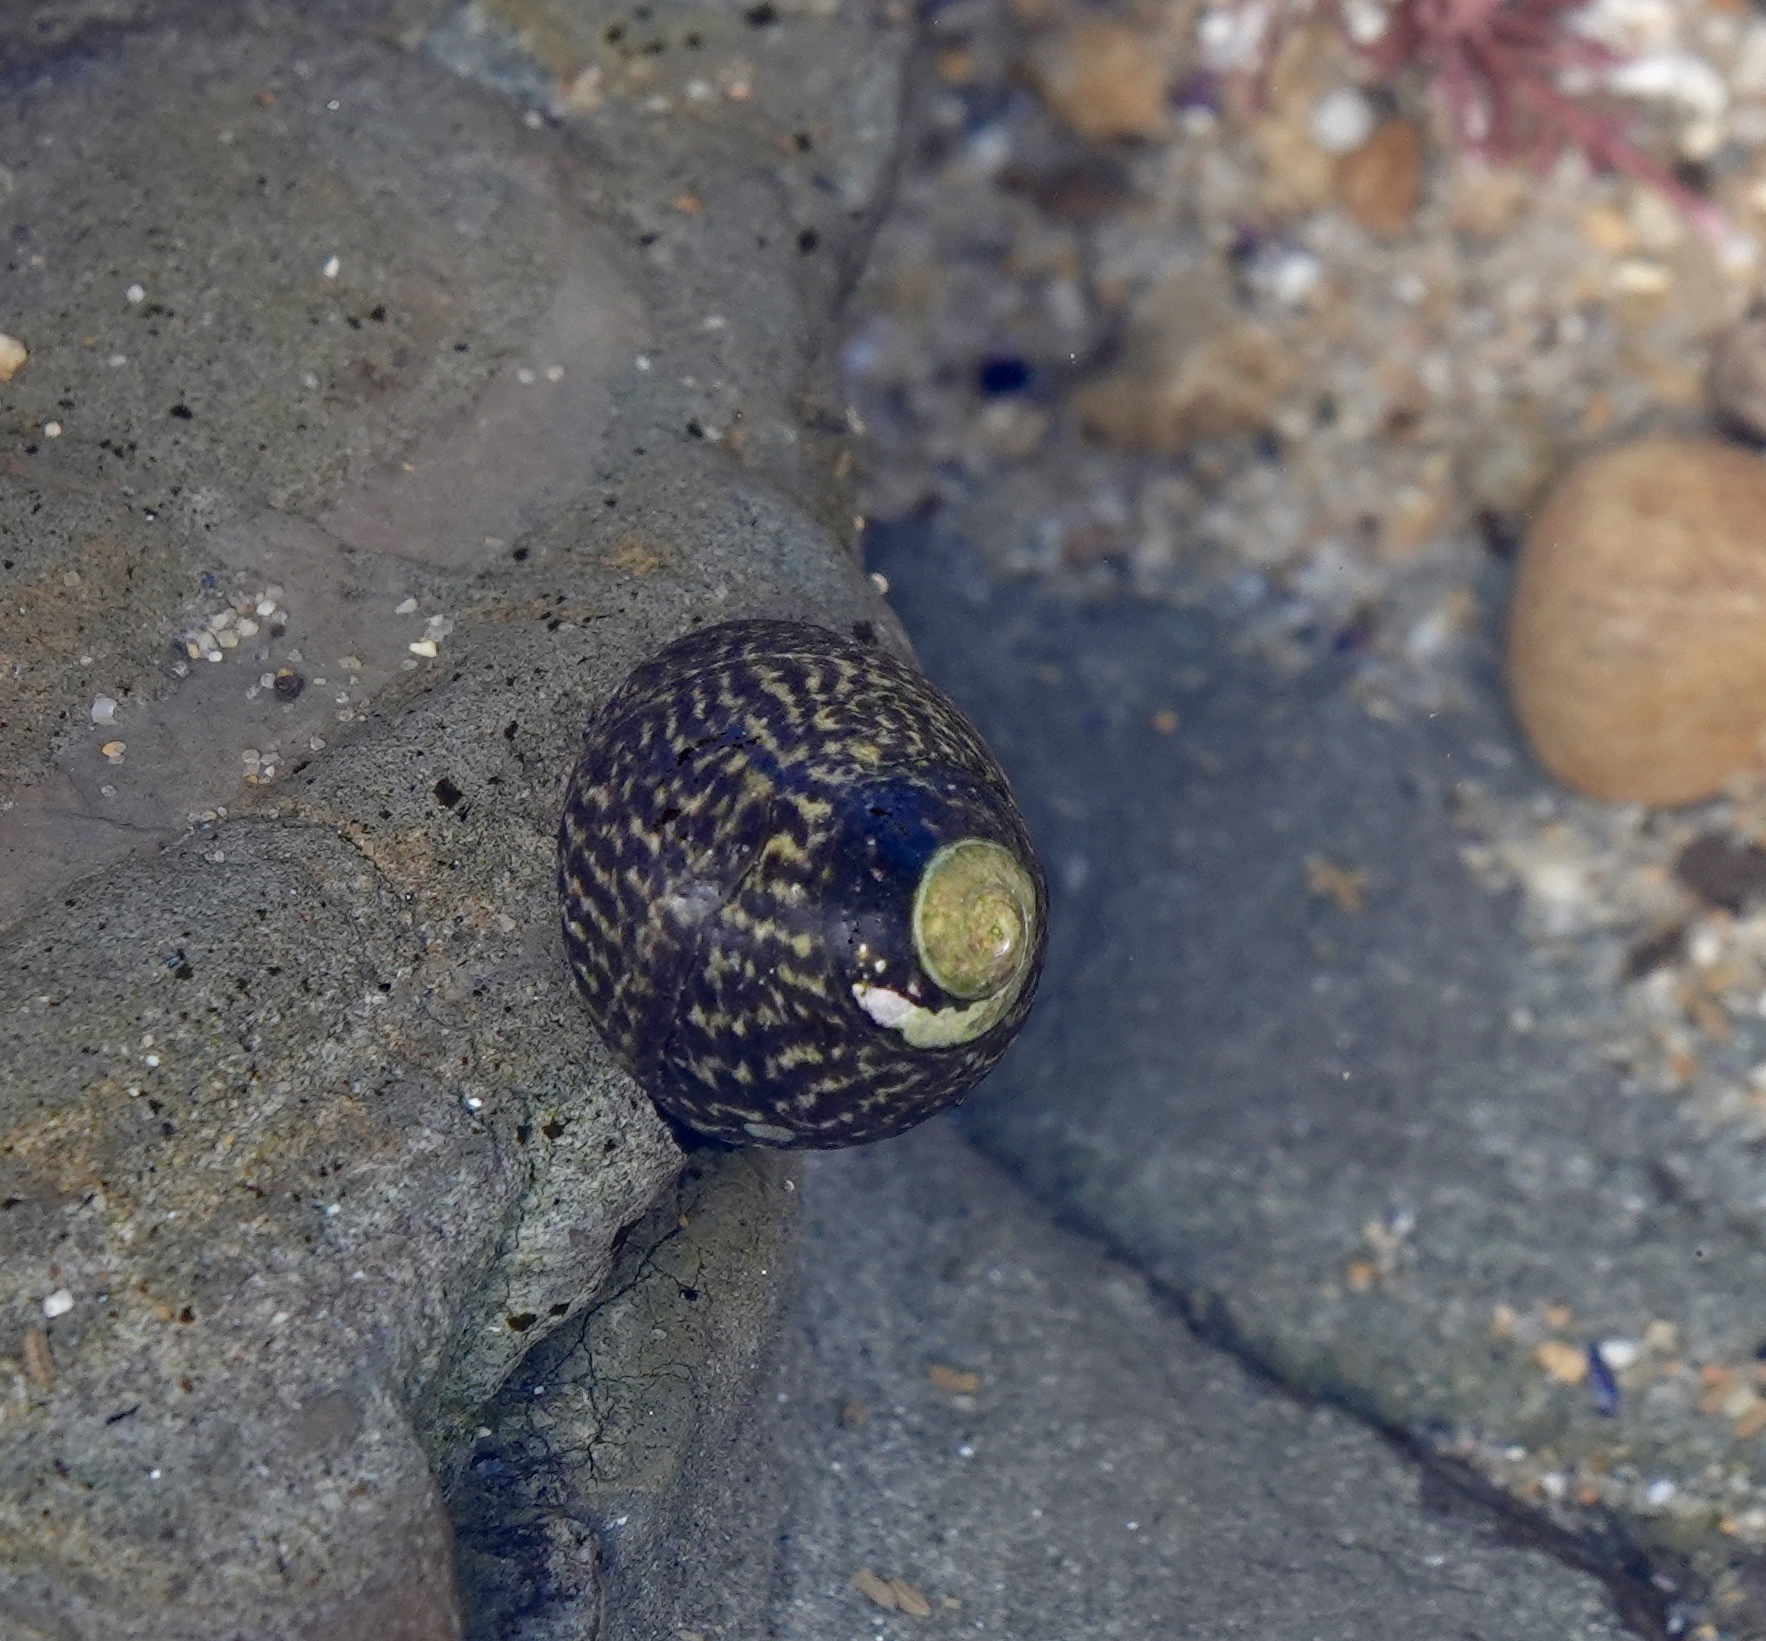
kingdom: Animalia
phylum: Mollusca
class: Gastropoda
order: Trochida
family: Tegulidae
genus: Tegula
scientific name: Tegula gallina
